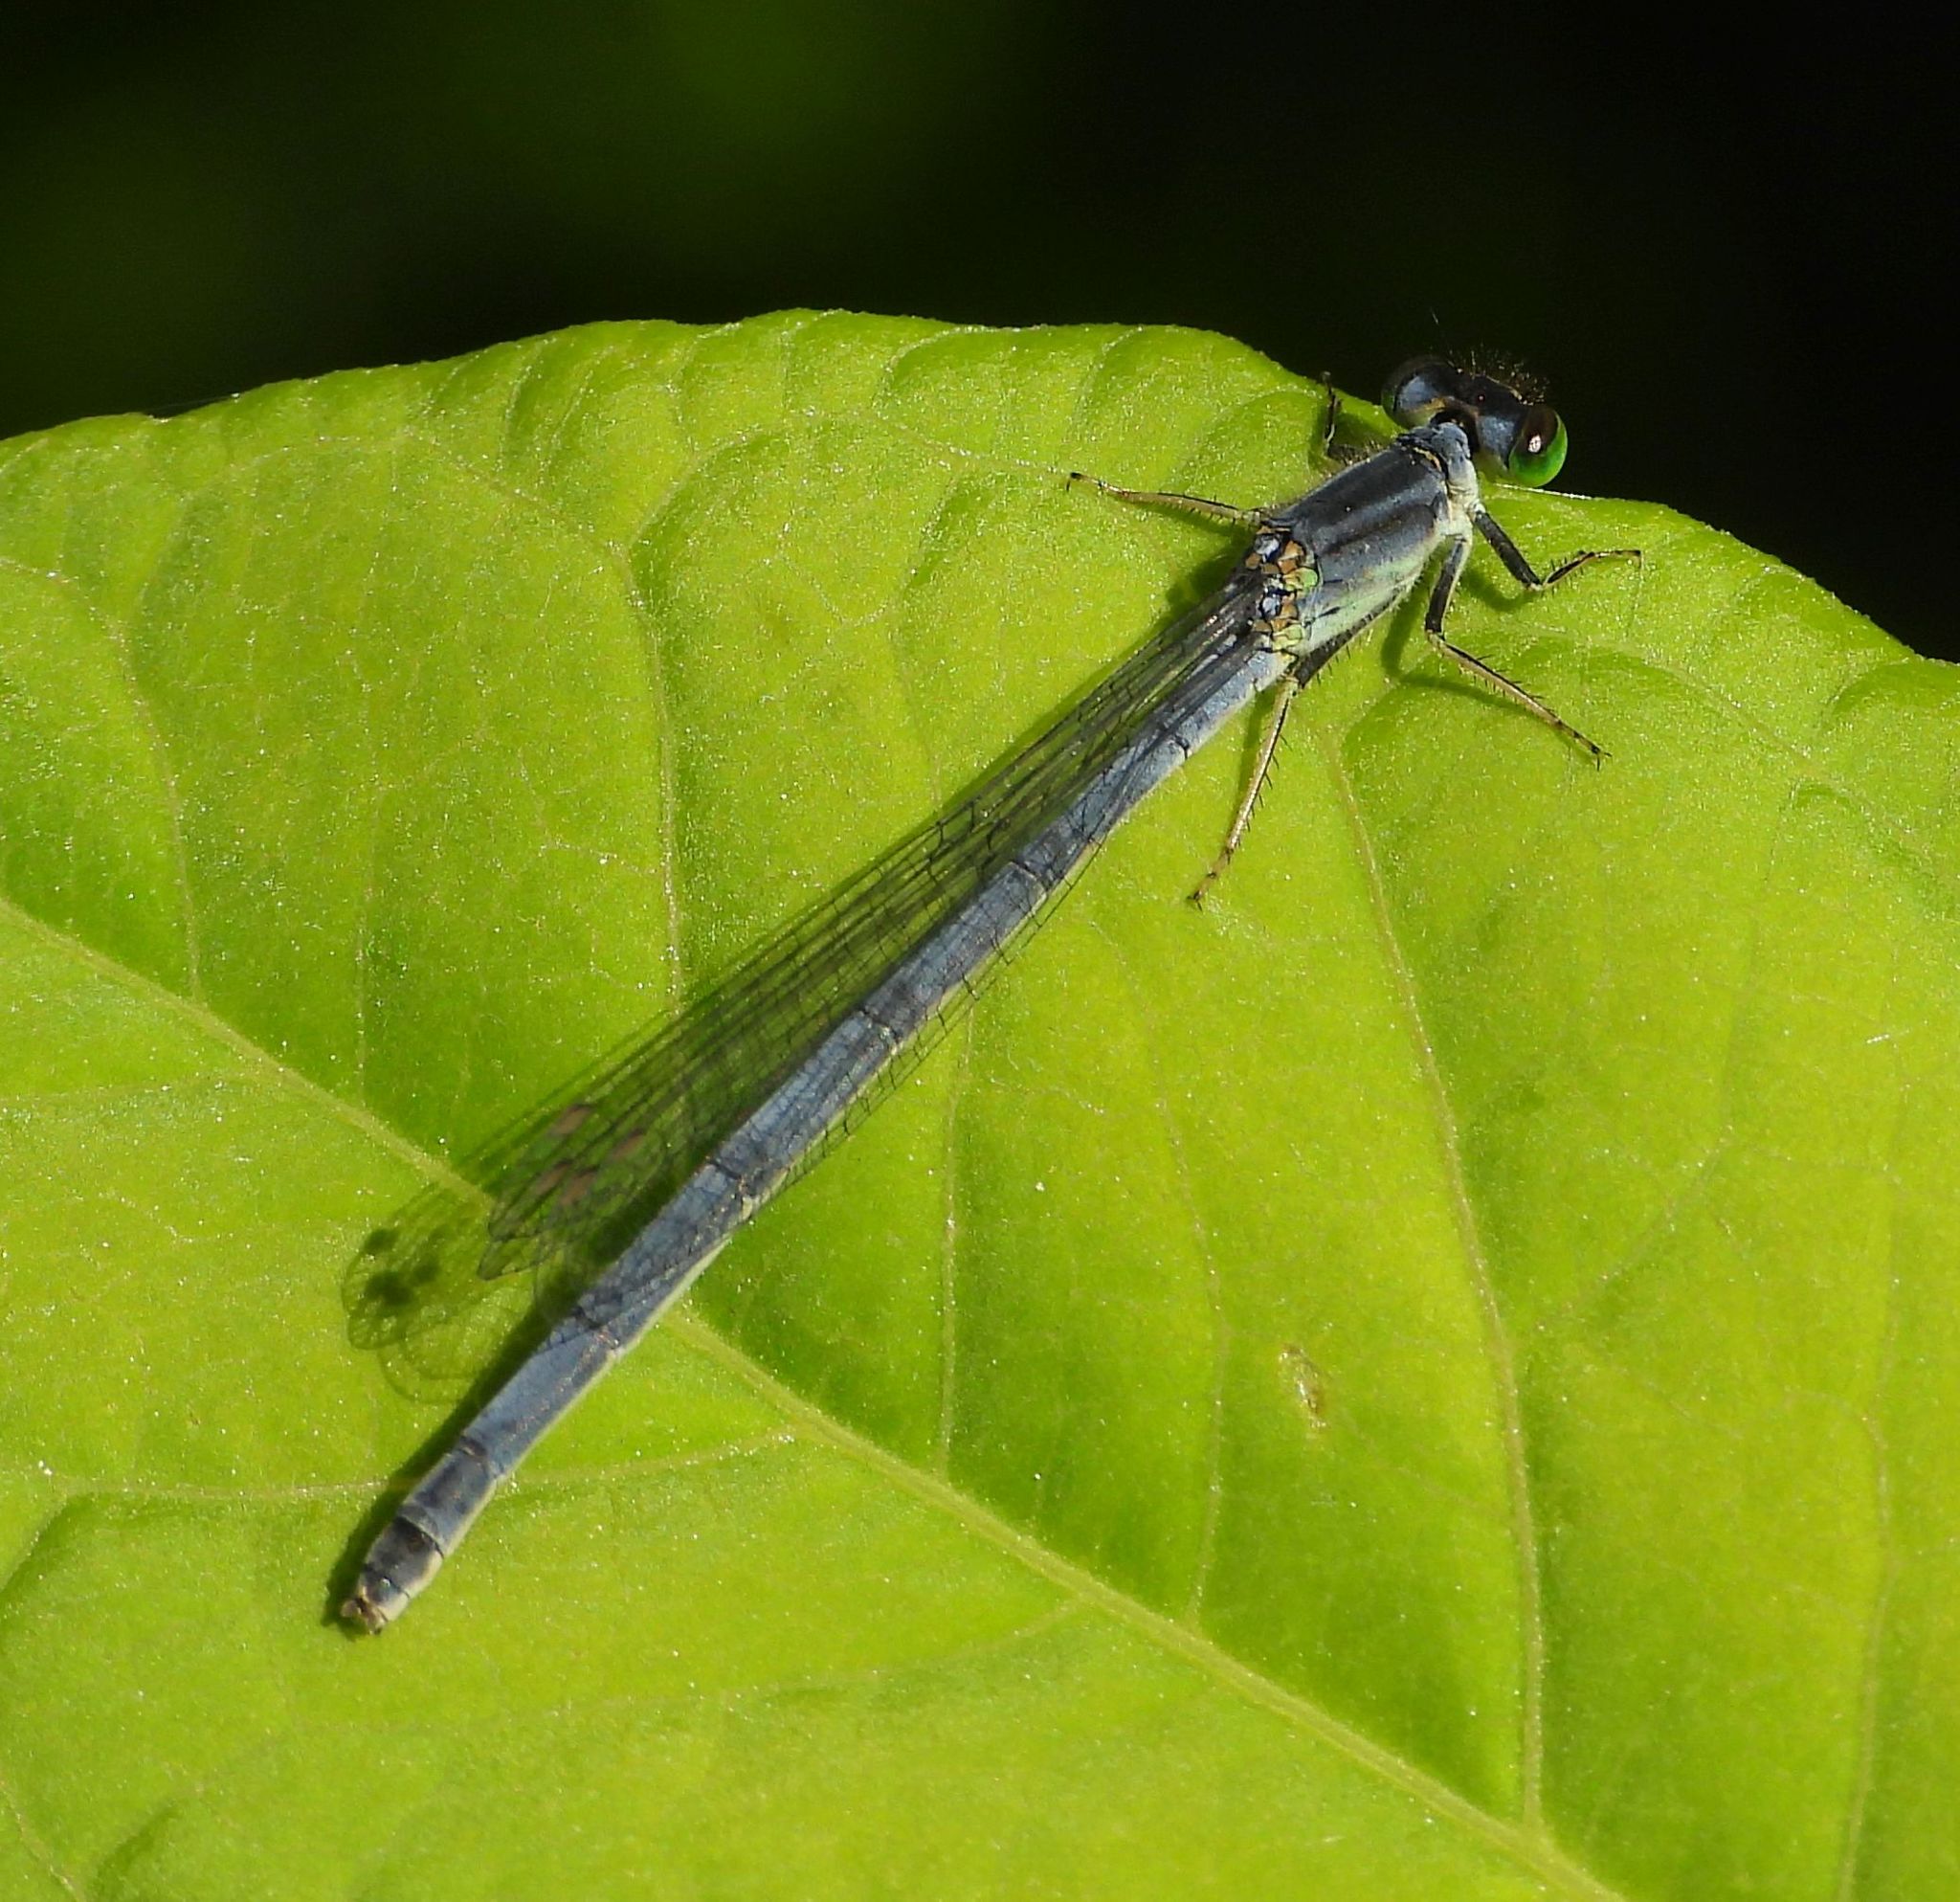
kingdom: Animalia
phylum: Arthropoda
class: Insecta
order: Odonata
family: Coenagrionidae
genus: Ischnura
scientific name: Ischnura verticalis
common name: Eastern forktail
